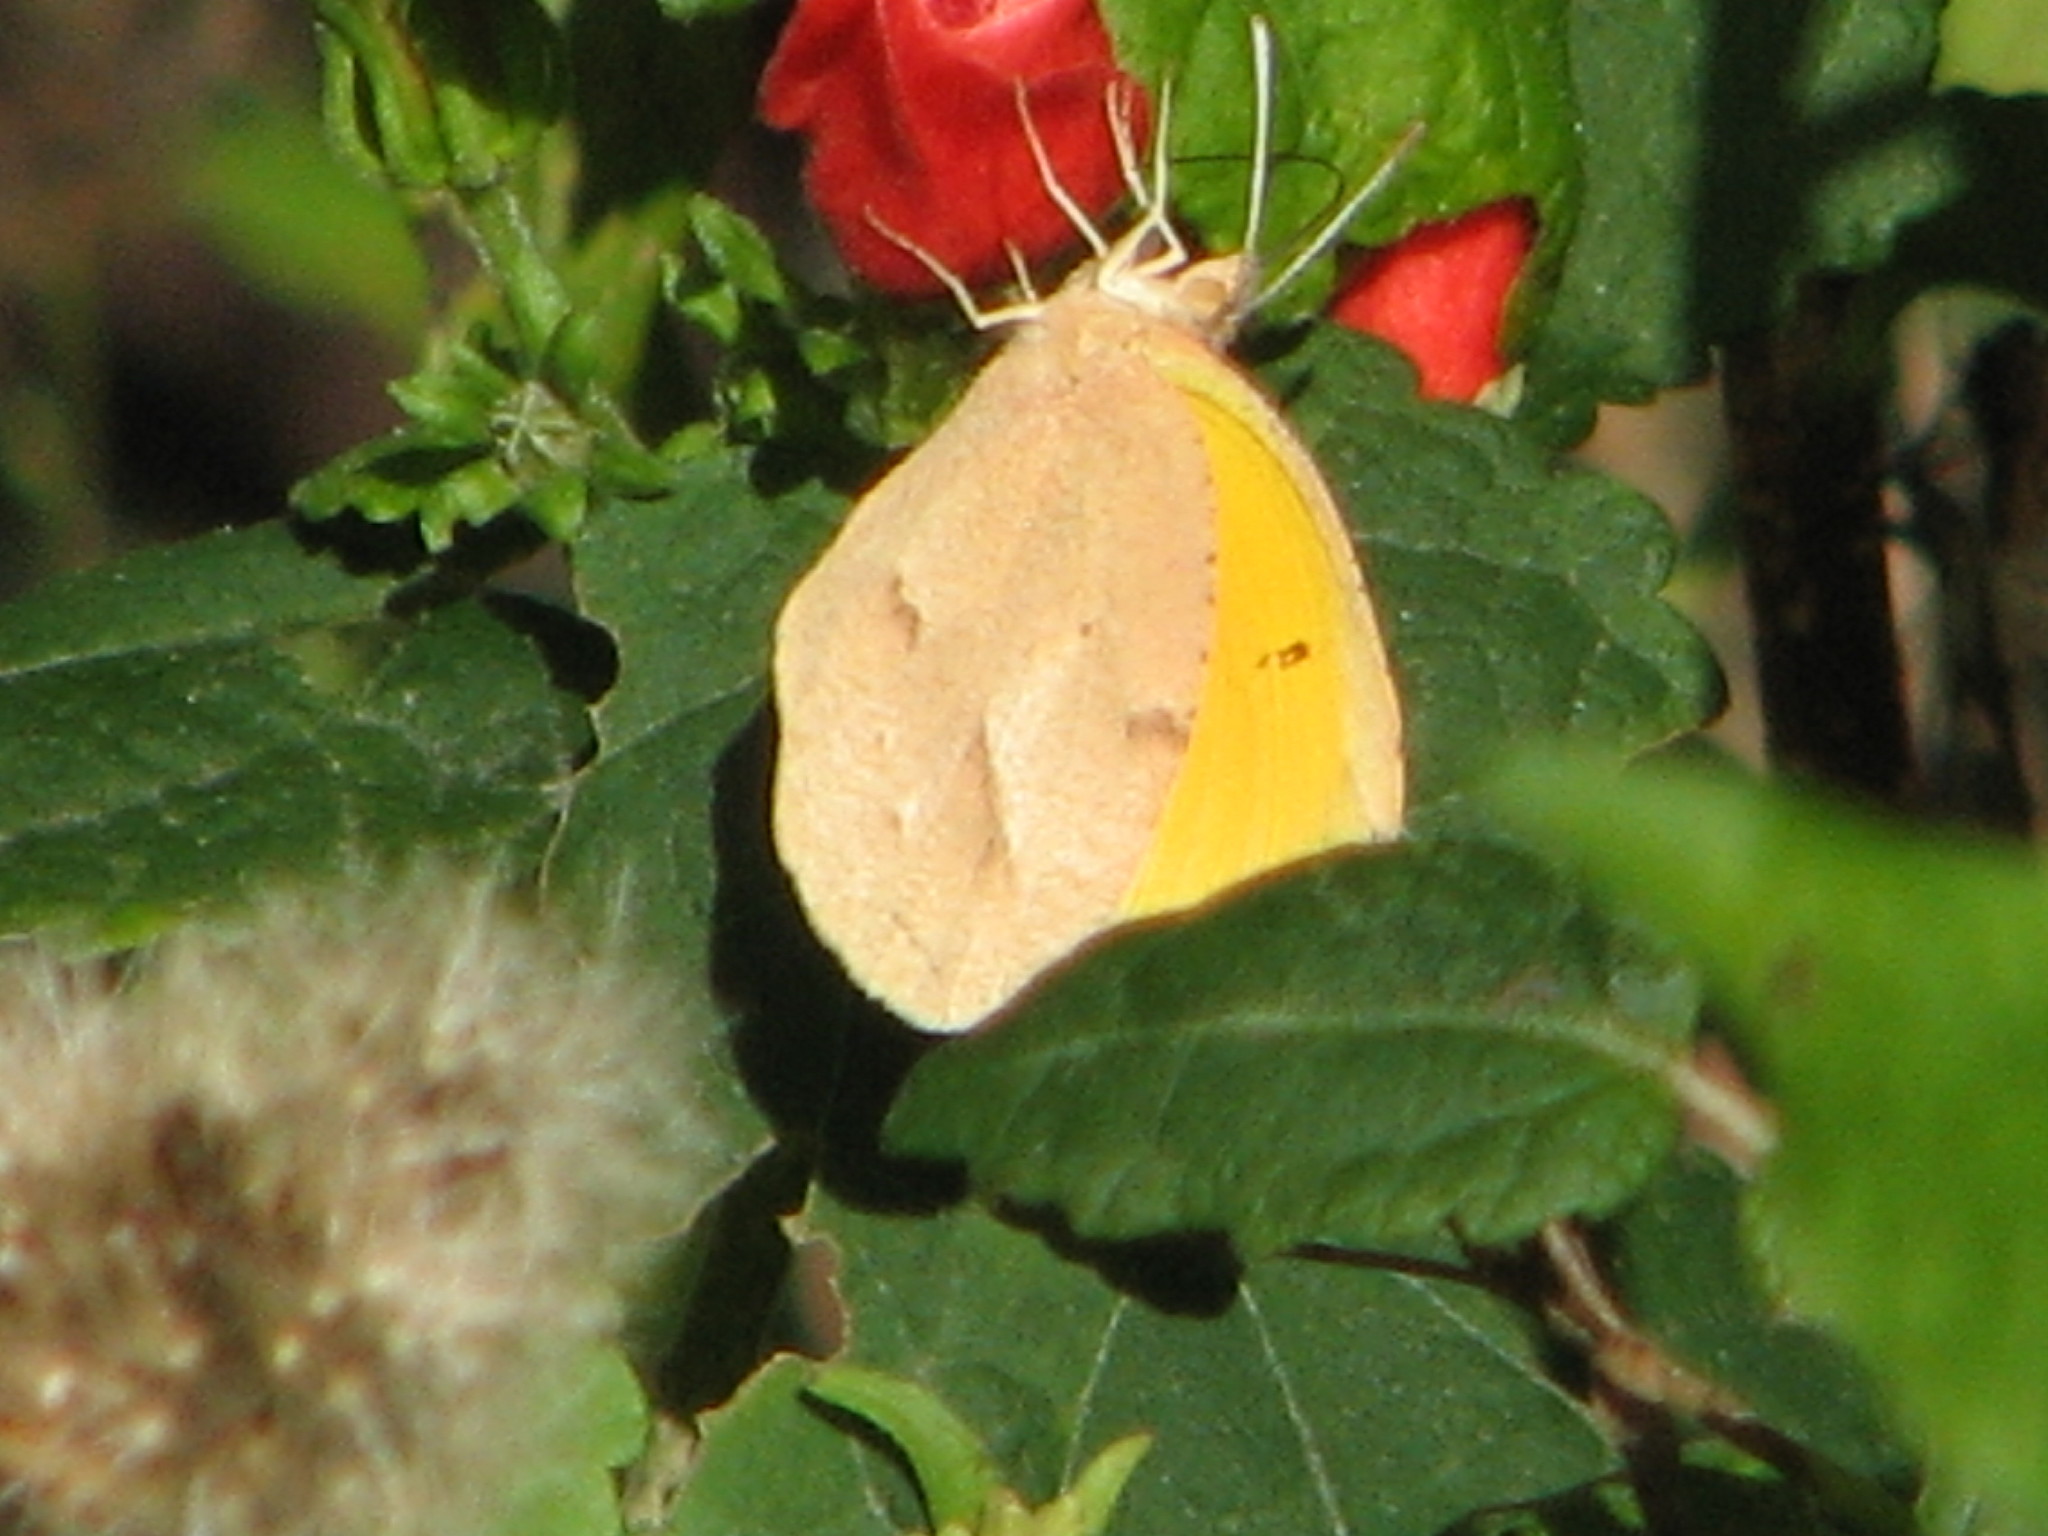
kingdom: Animalia
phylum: Arthropoda
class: Insecta
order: Lepidoptera
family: Pieridae
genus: Abaeis
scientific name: Abaeis nicippe
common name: Sleepy orange
